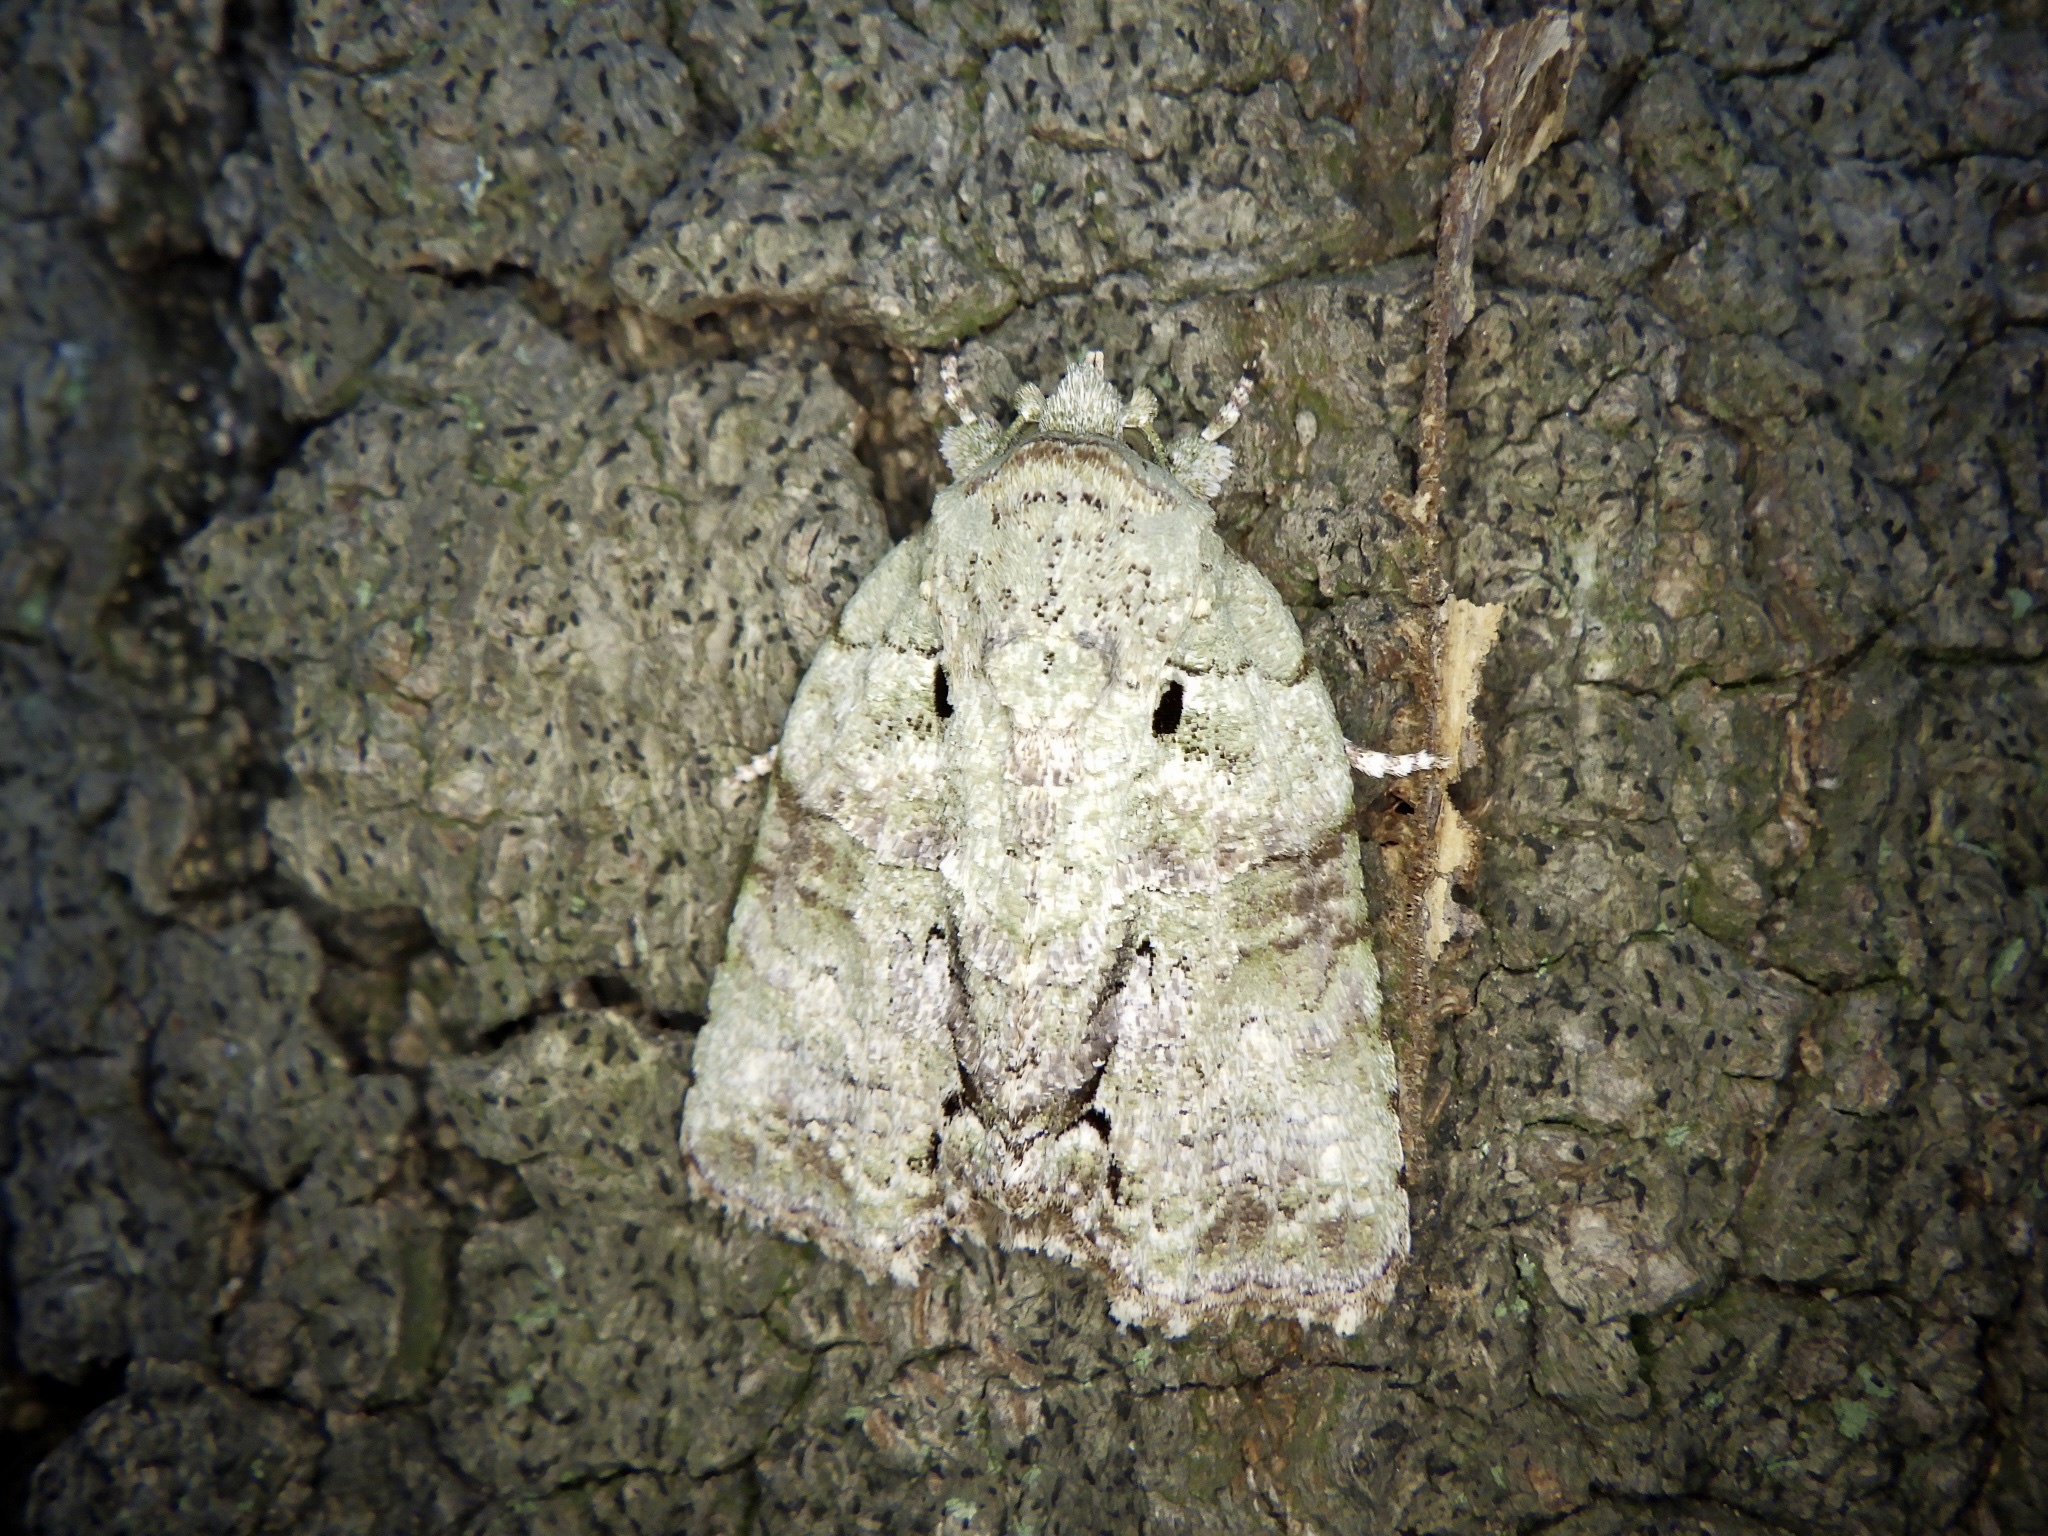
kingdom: Animalia
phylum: Arthropoda
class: Insecta
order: Lepidoptera
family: Nolidae
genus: Blenina
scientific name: Blenina senex
